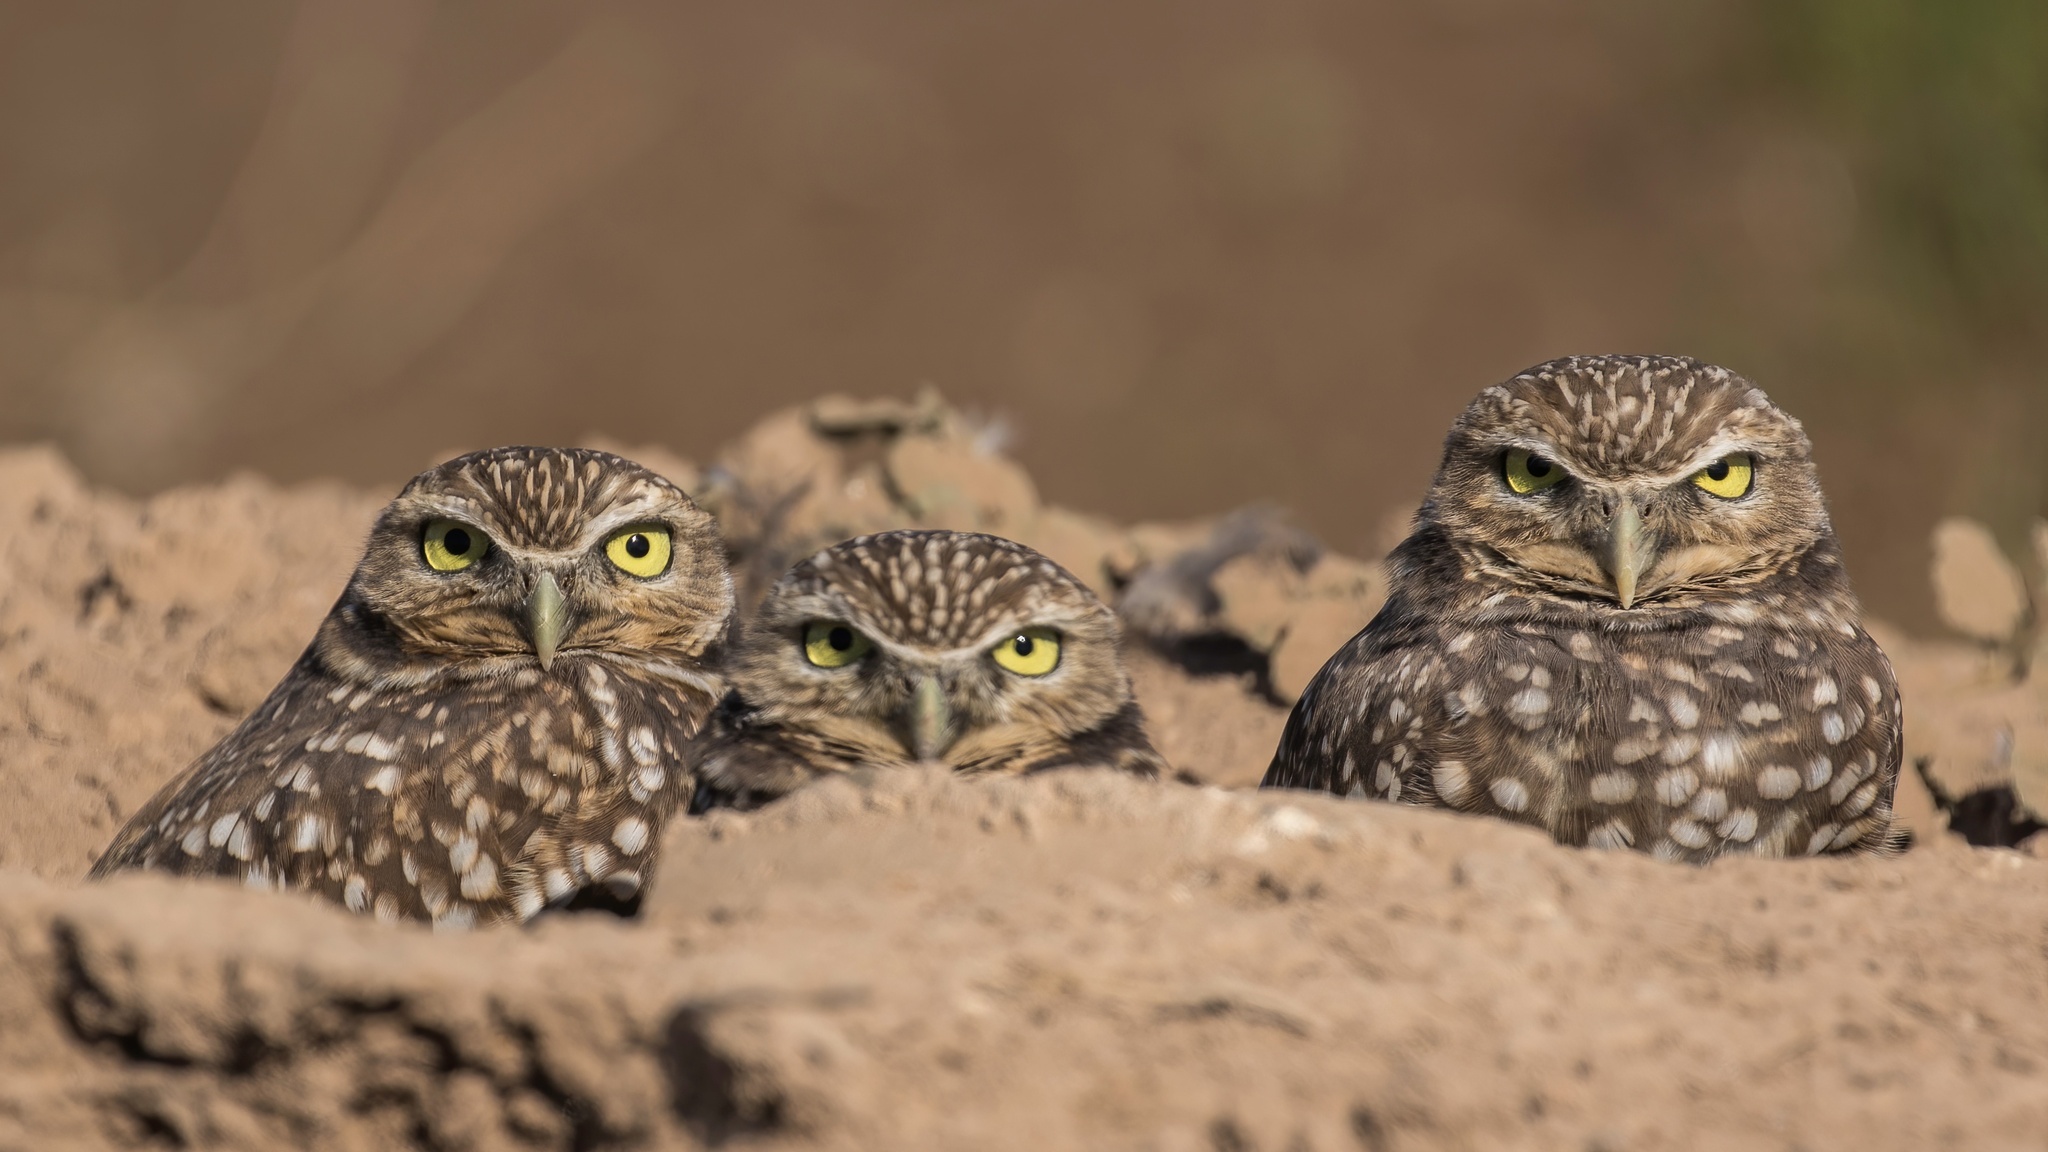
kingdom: Animalia
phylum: Chordata
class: Aves
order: Strigiformes
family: Strigidae
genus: Athene
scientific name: Athene cunicularia
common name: Burrowing owl
